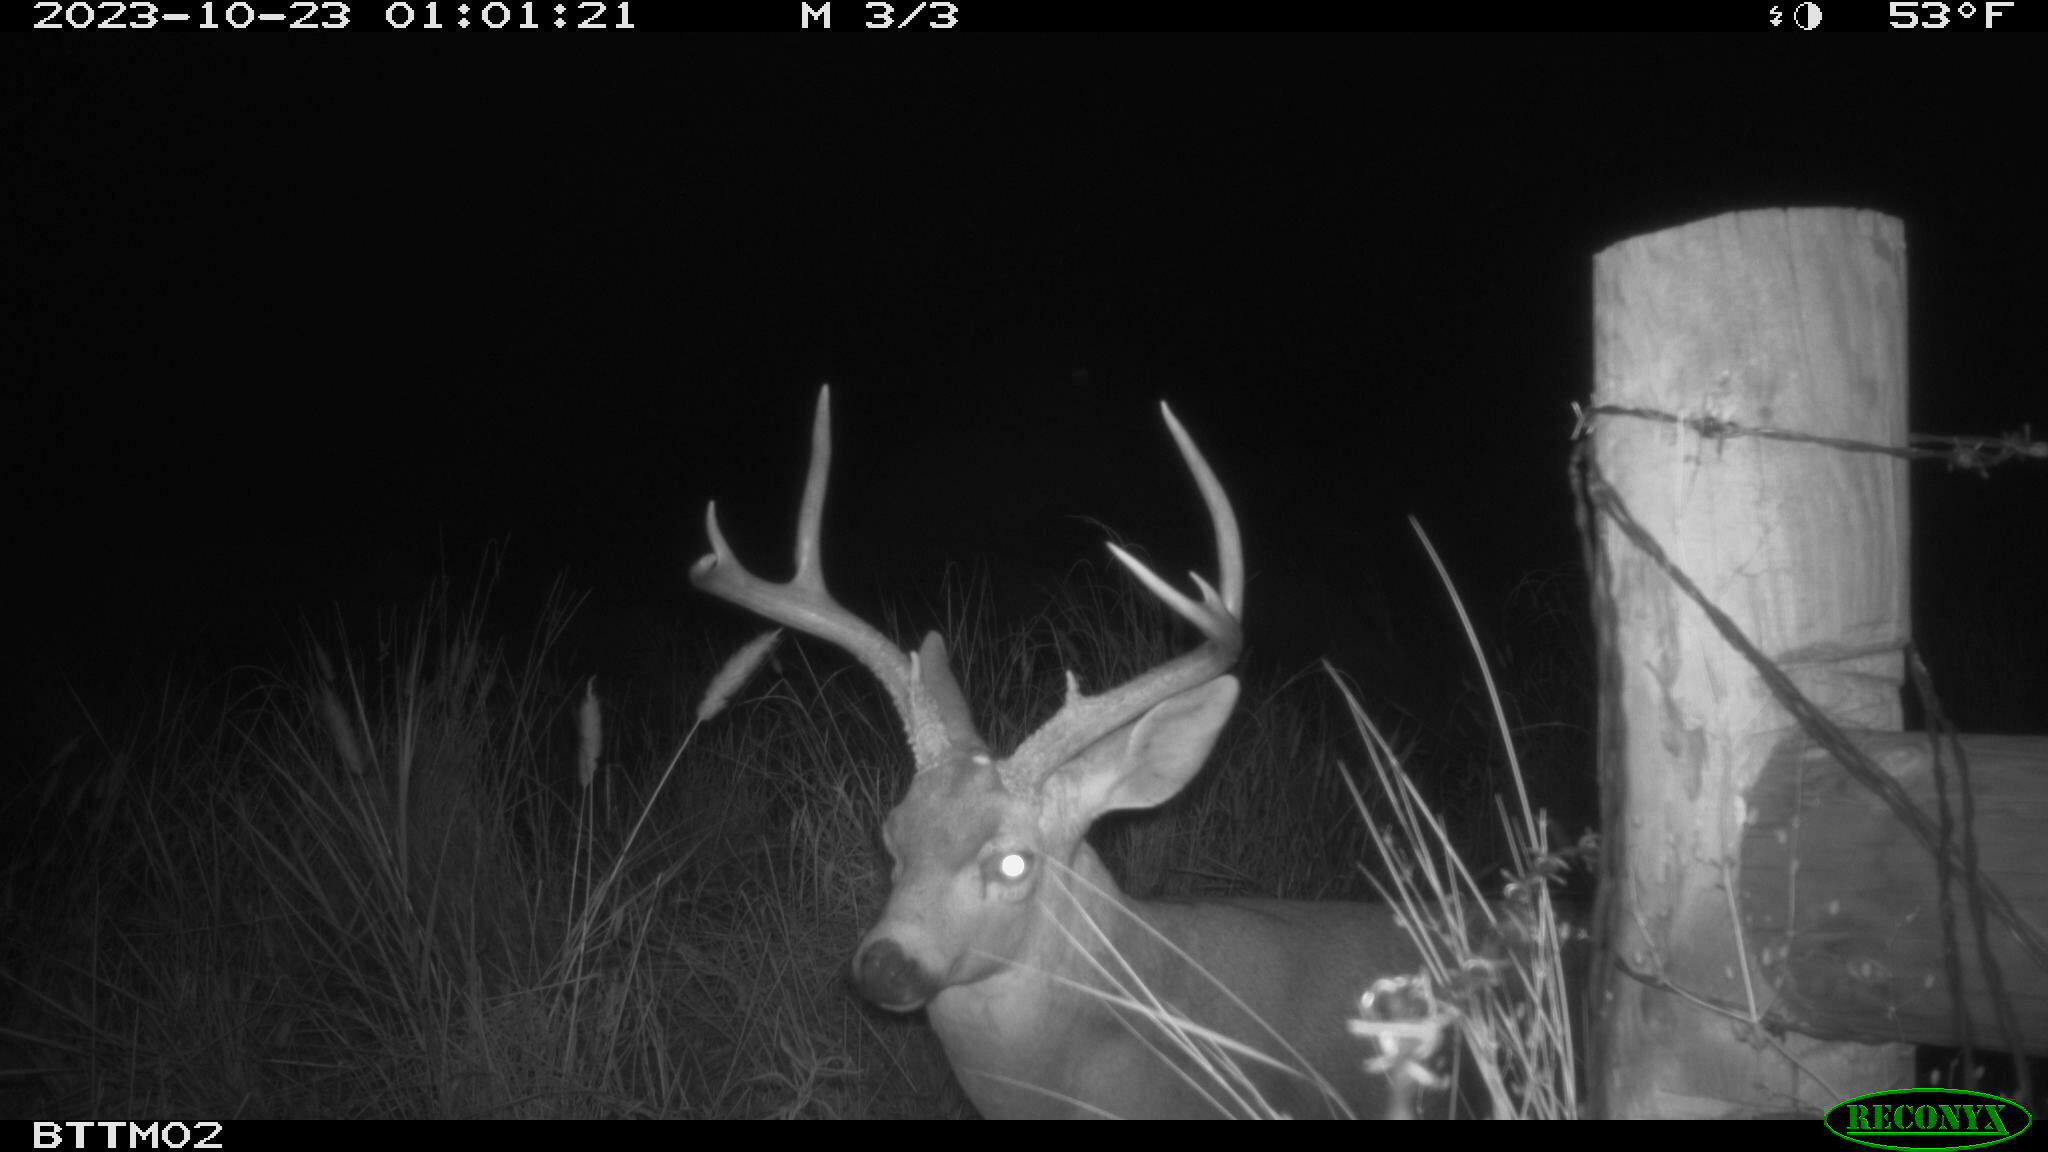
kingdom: Animalia
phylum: Chordata
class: Mammalia
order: Artiodactyla
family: Cervidae
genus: Odocoileus
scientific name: Odocoileus hemionus
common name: Mule deer
